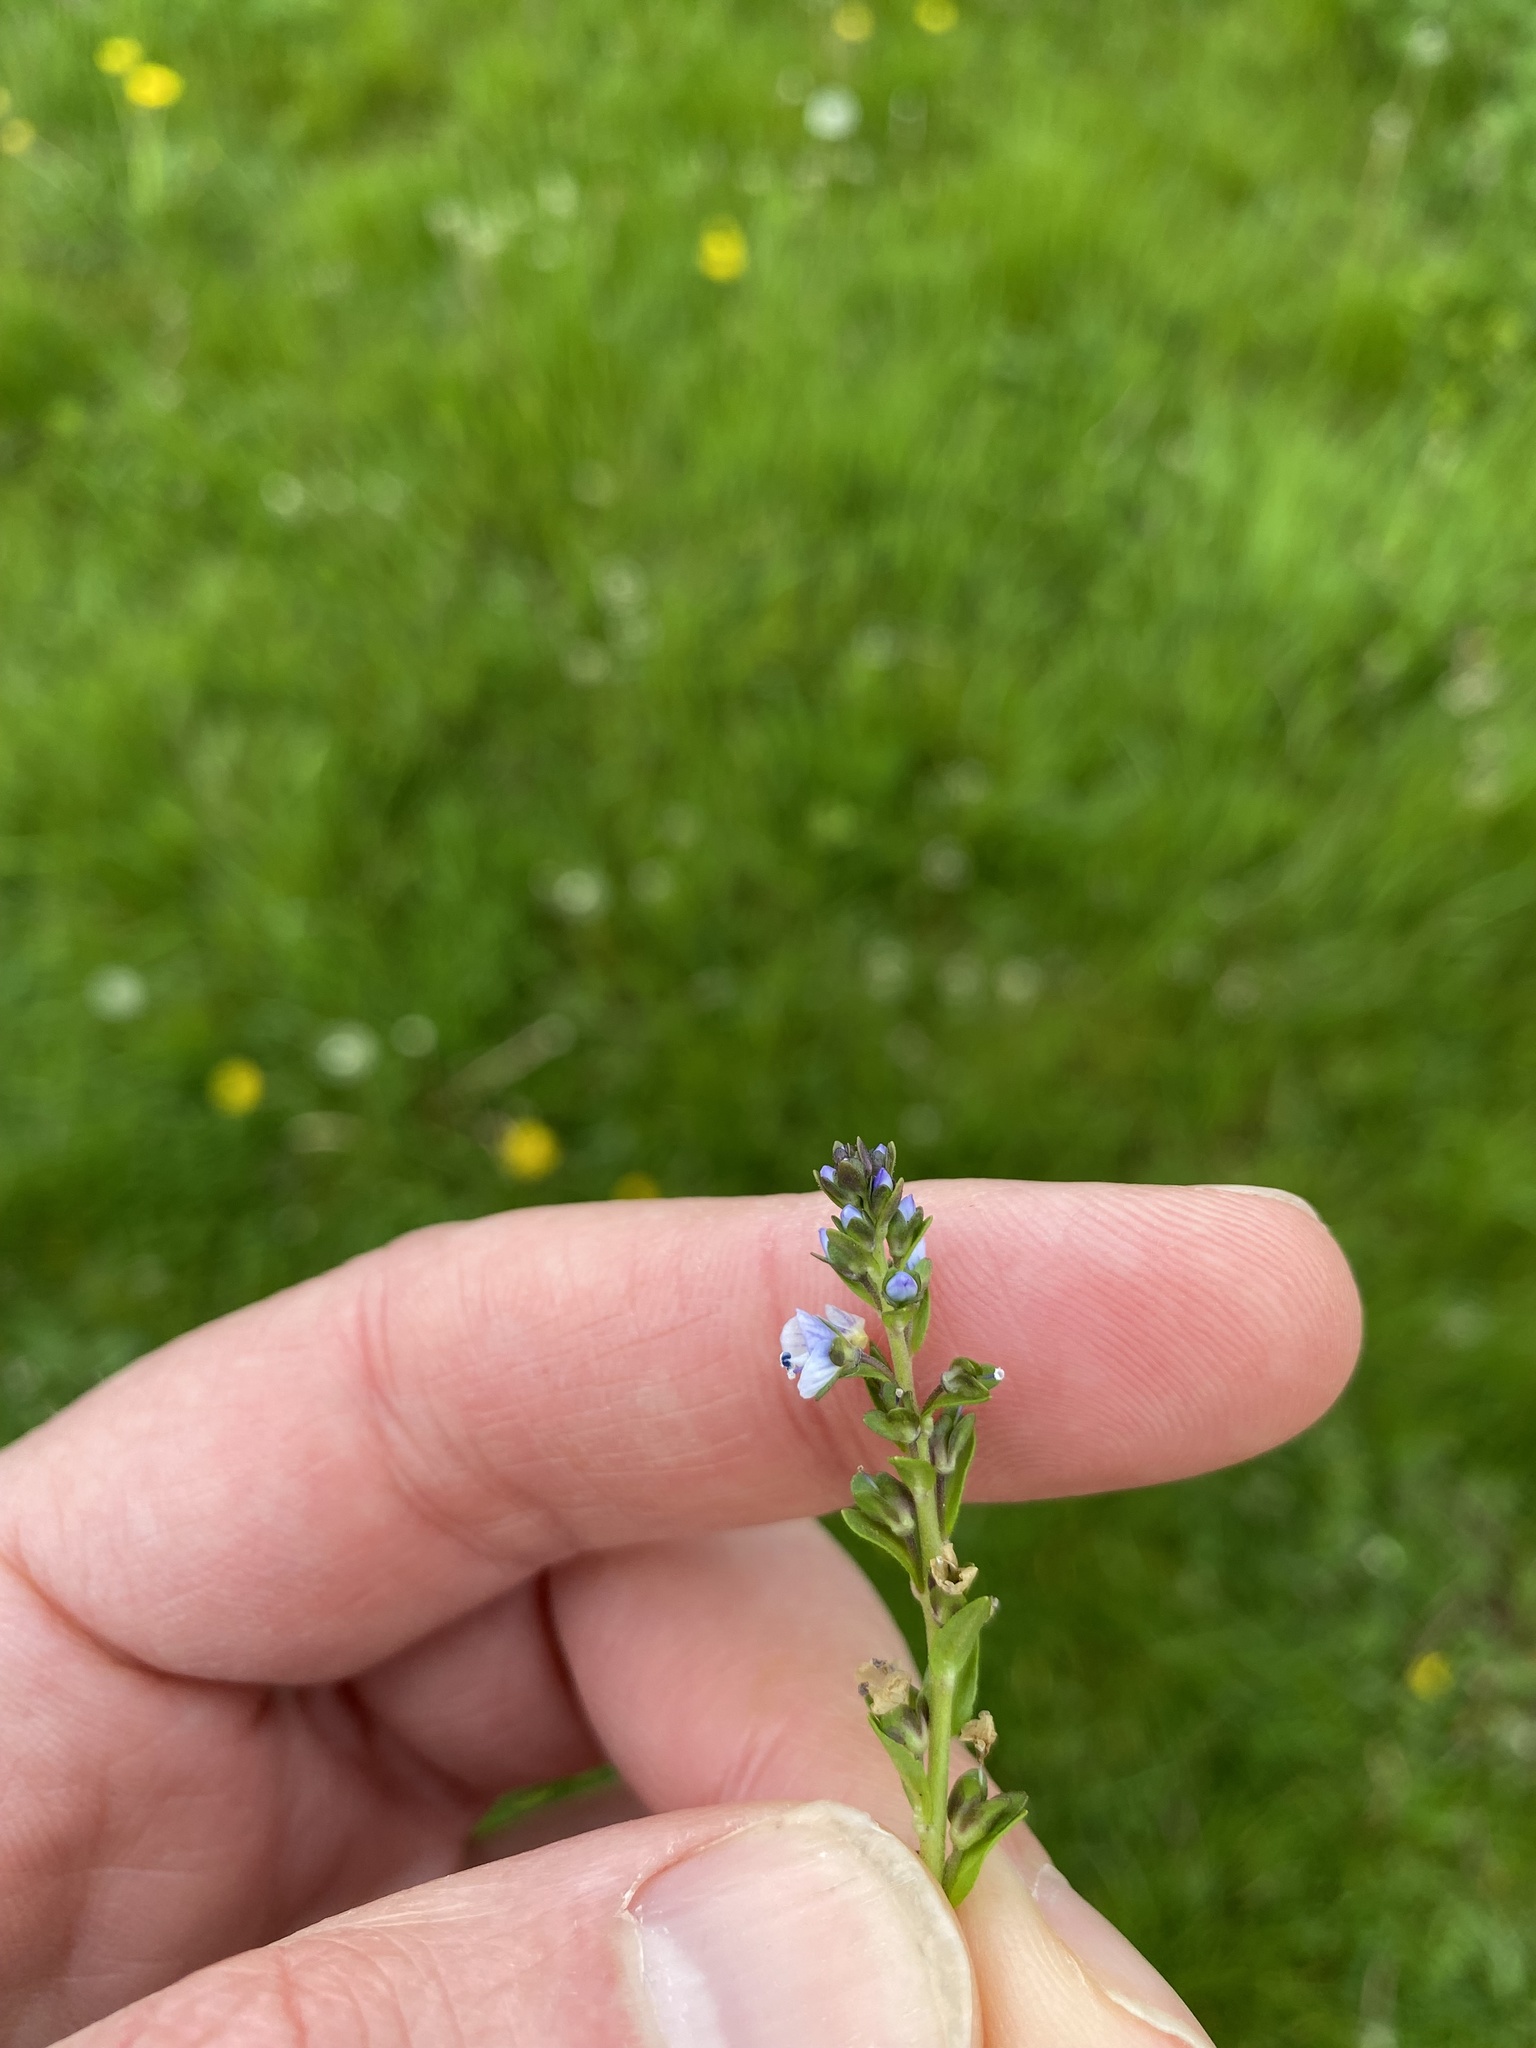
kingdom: Plantae
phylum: Tracheophyta
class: Magnoliopsida
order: Lamiales
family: Plantaginaceae
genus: Veronica
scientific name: Veronica serpyllifolia
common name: Thyme-leaved speedwell
